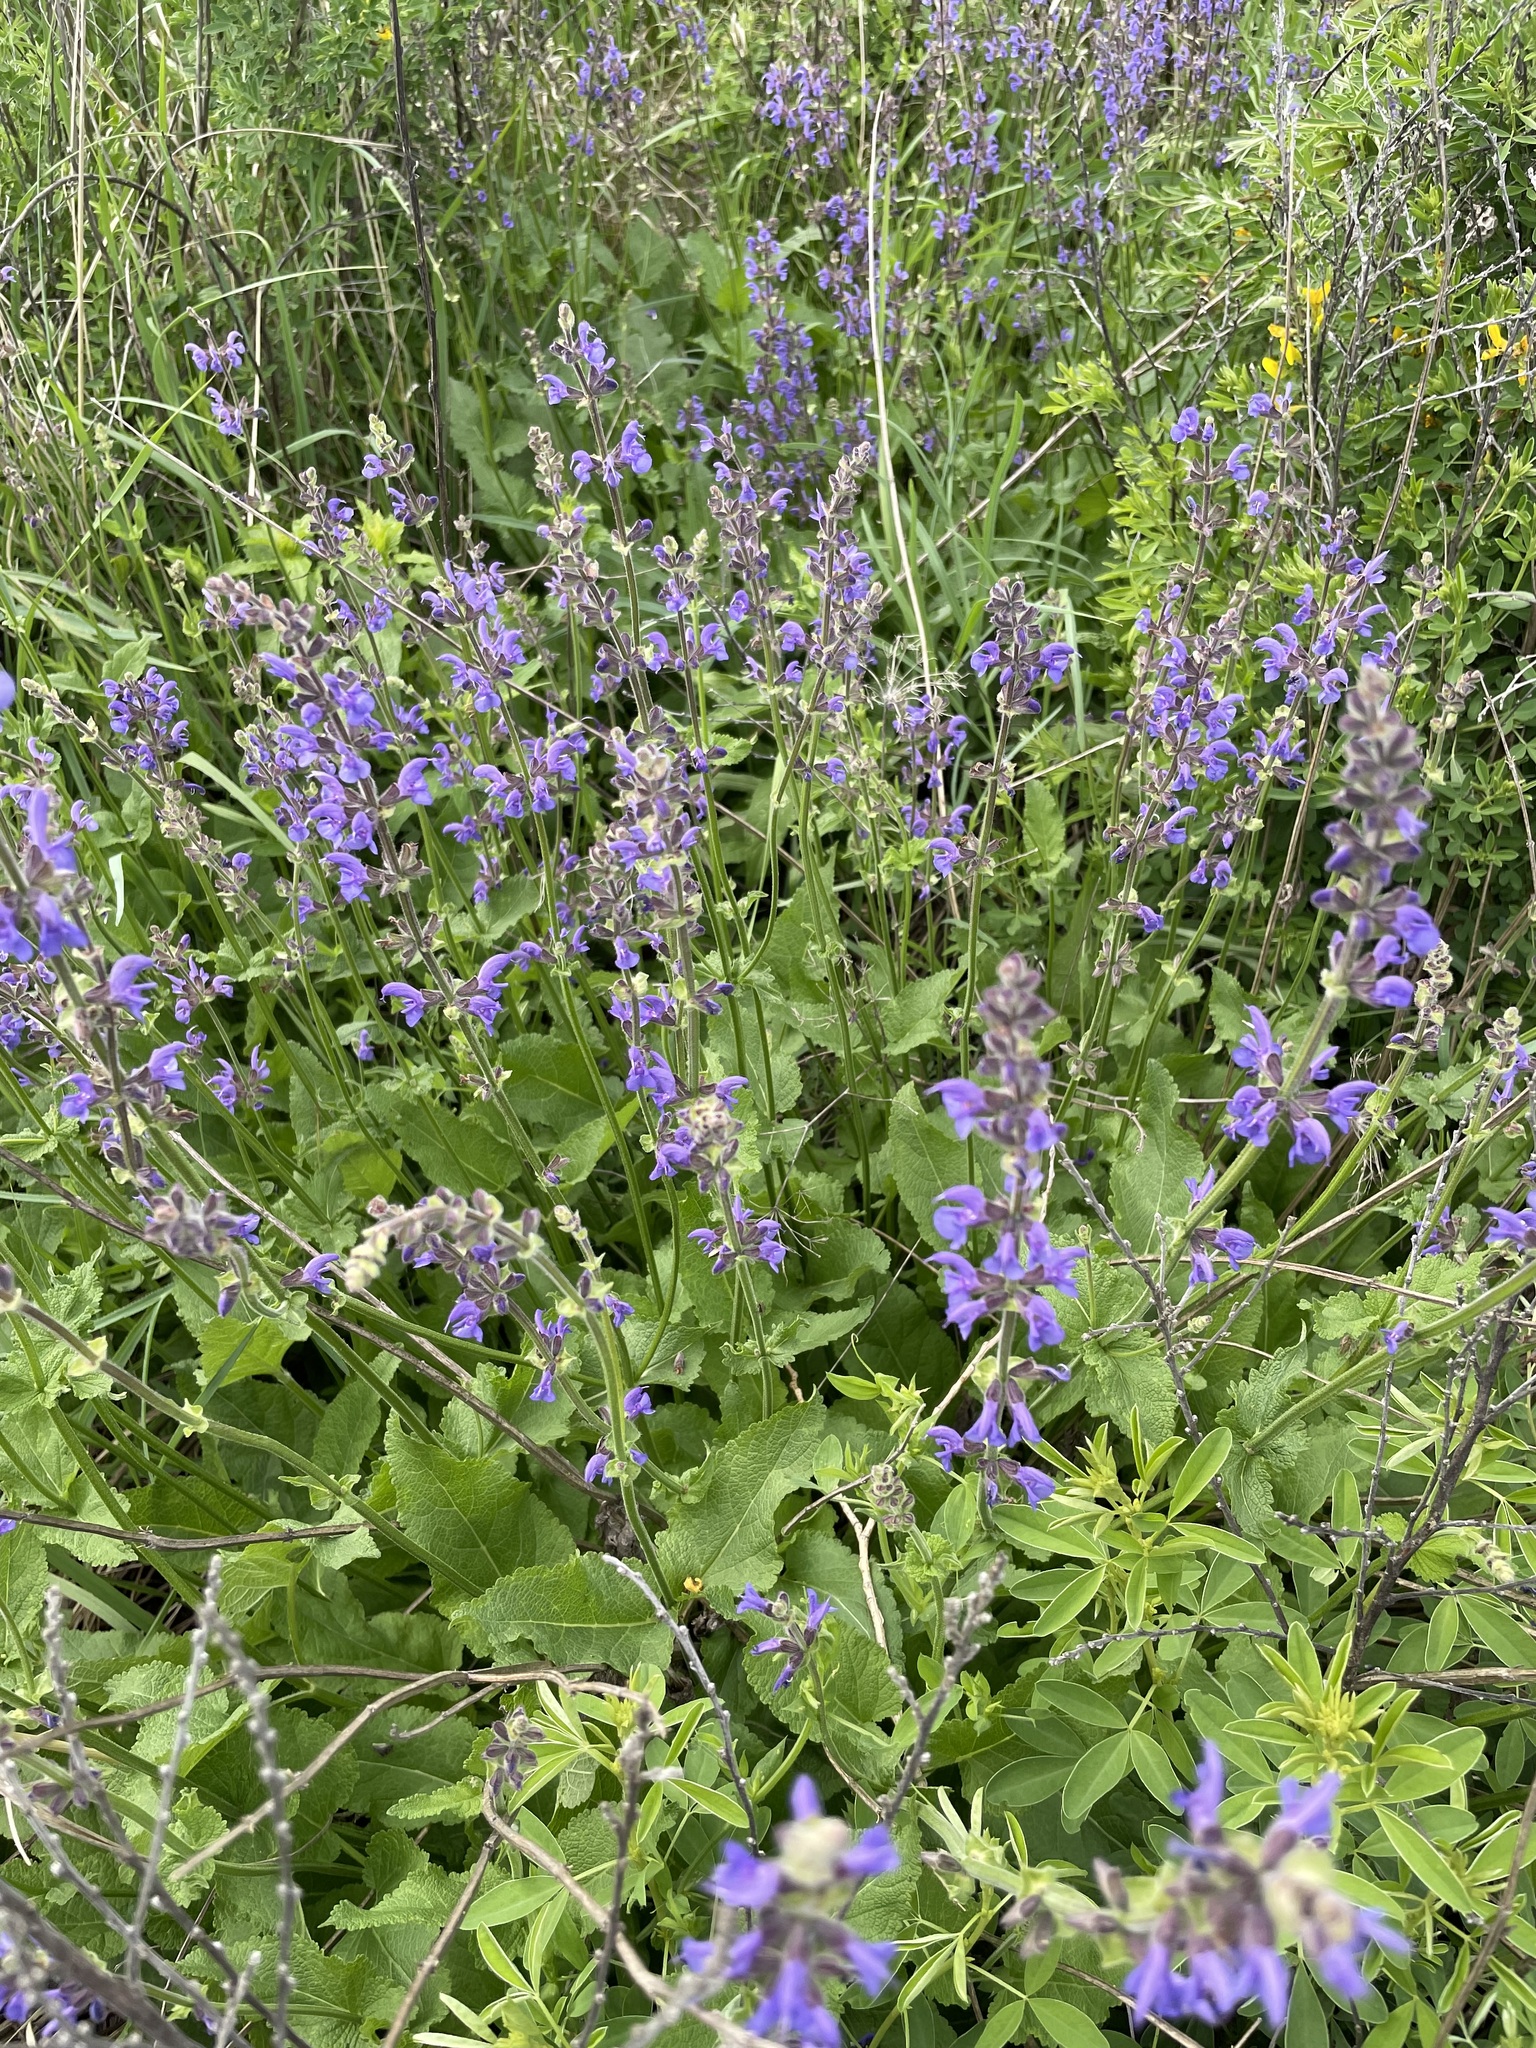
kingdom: Plantae
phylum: Tracheophyta
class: Magnoliopsida
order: Lamiales
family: Lamiaceae
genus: Salvia
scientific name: Salvia dumetorum
